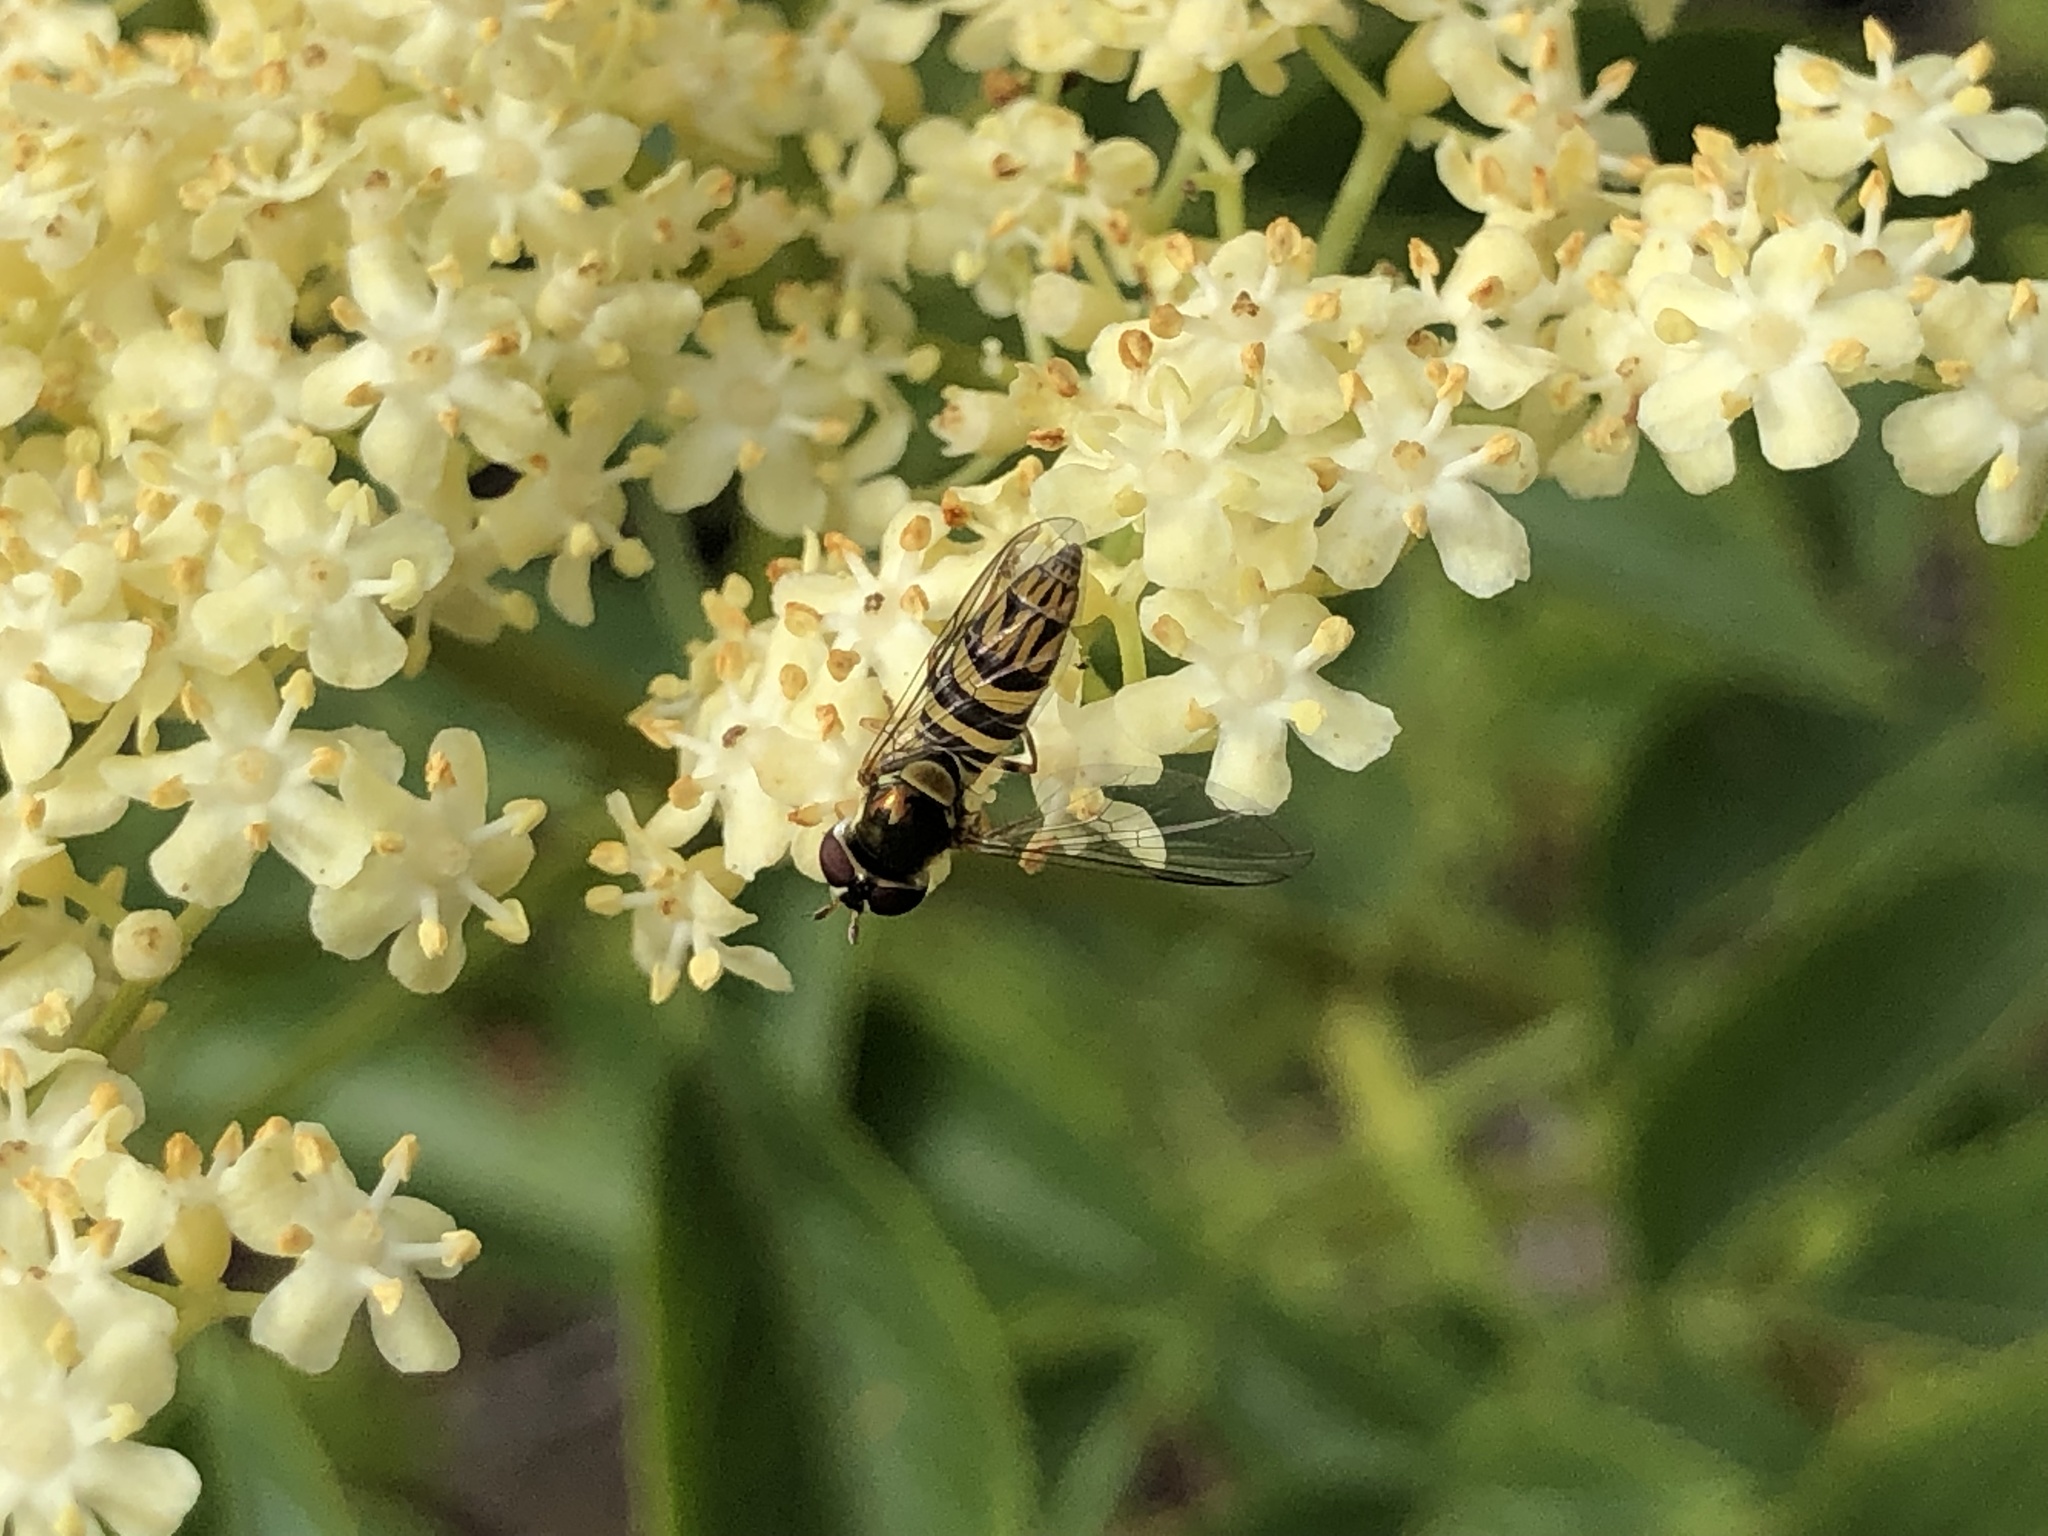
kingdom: Animalia
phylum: Arthropoda
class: Insecta
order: Diptera
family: Syrphidae
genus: Allograpta
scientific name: Allograpta obliqua
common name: Common oblique syrphid
